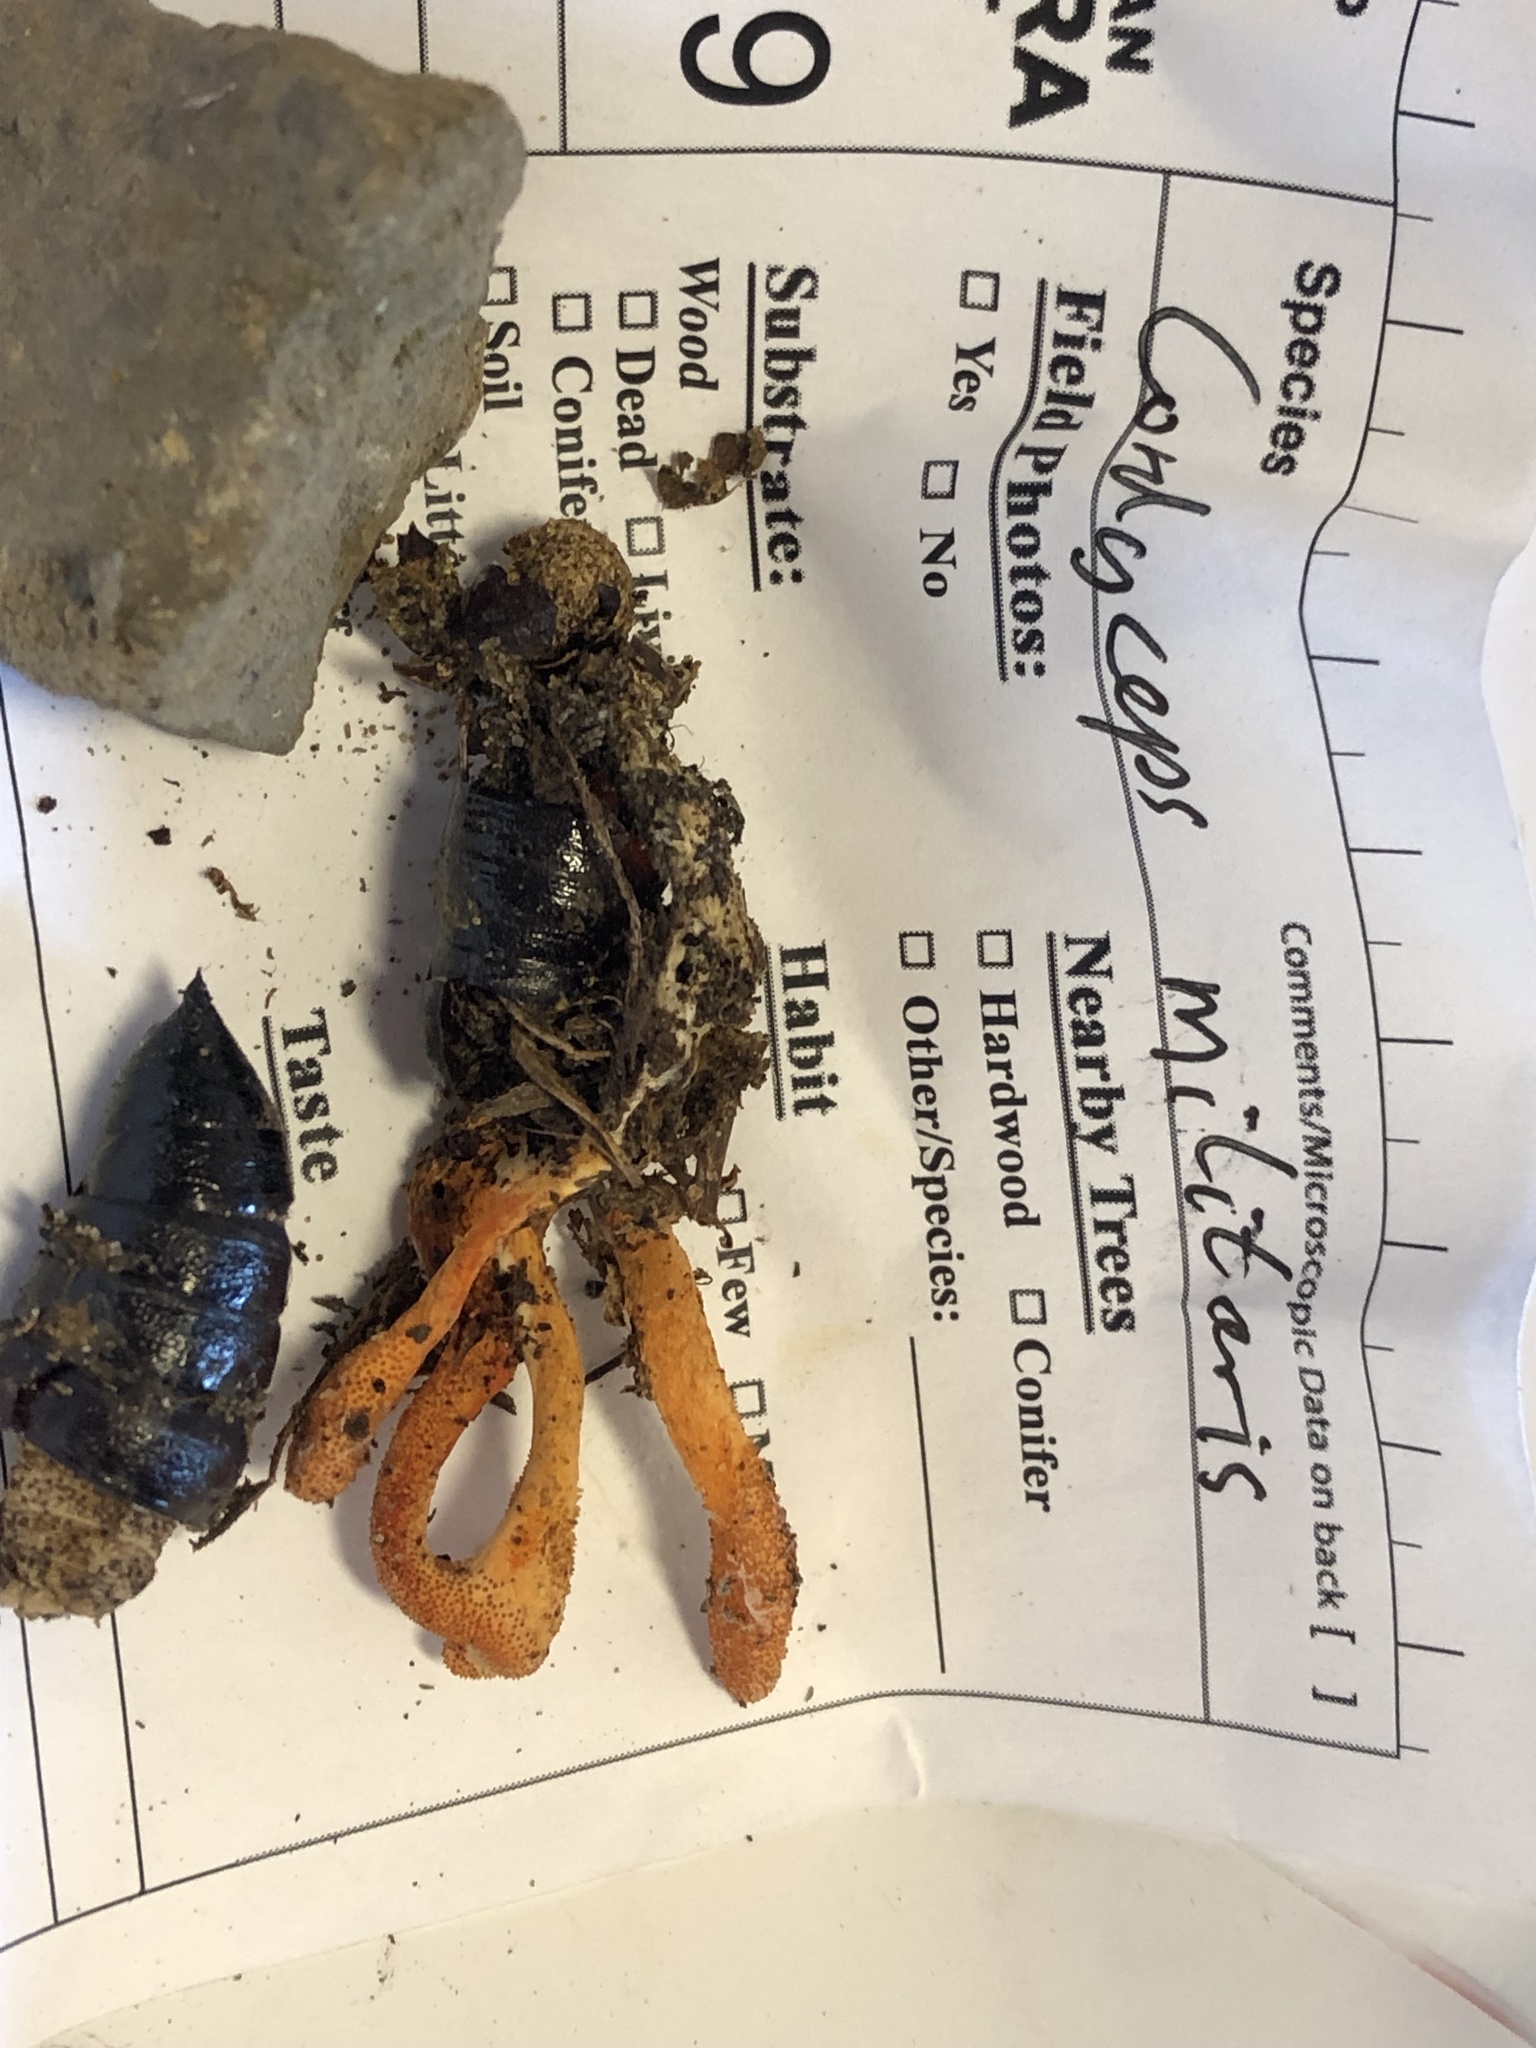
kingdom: Fungi
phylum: Ascomycota
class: Sordariomycetes
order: Hypocreales
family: Cordycipitaceae
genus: Cordyceps
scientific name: Cordyceps militaris
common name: Scarlet caterpillar fungus
